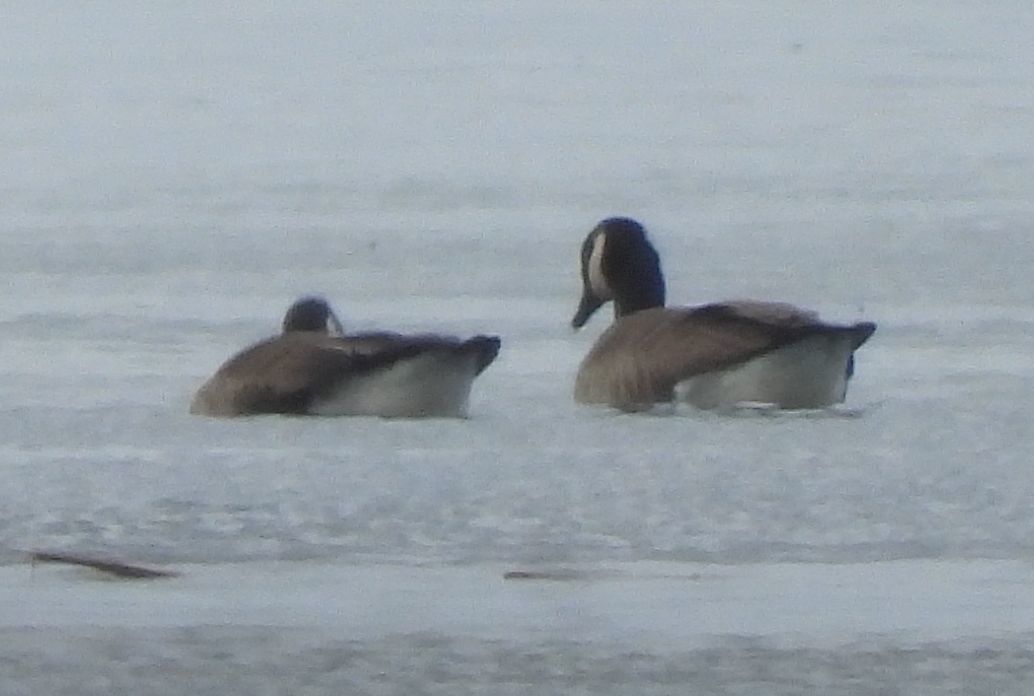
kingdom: Animalia
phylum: Chordata
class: Aves
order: Anseriformes
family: Anatidae
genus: Branta
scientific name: Branta canadensis
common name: Canada goose
